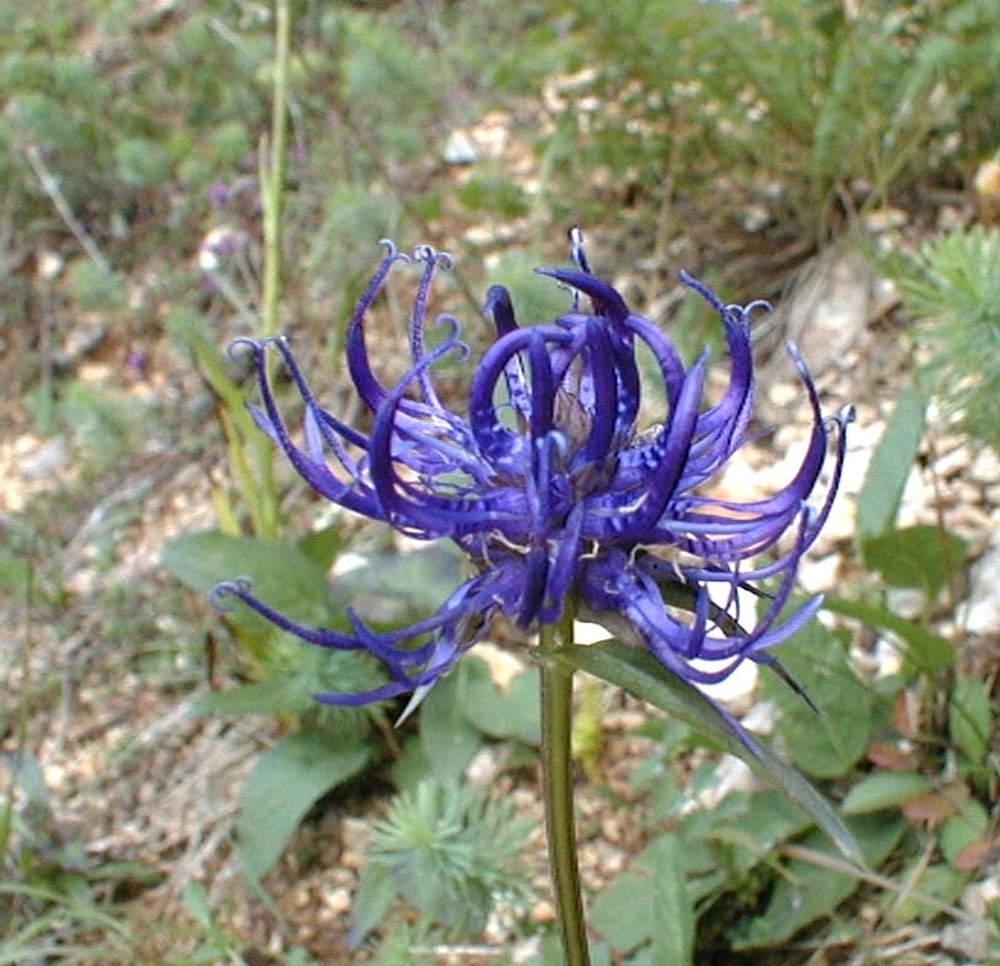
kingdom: Plantae
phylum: Tracheophyta
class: Magnoliopsida
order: Asterales
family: Campanulaceae
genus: Phyteuma
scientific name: Phyteuma orbiculare
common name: Round-headed rampion
